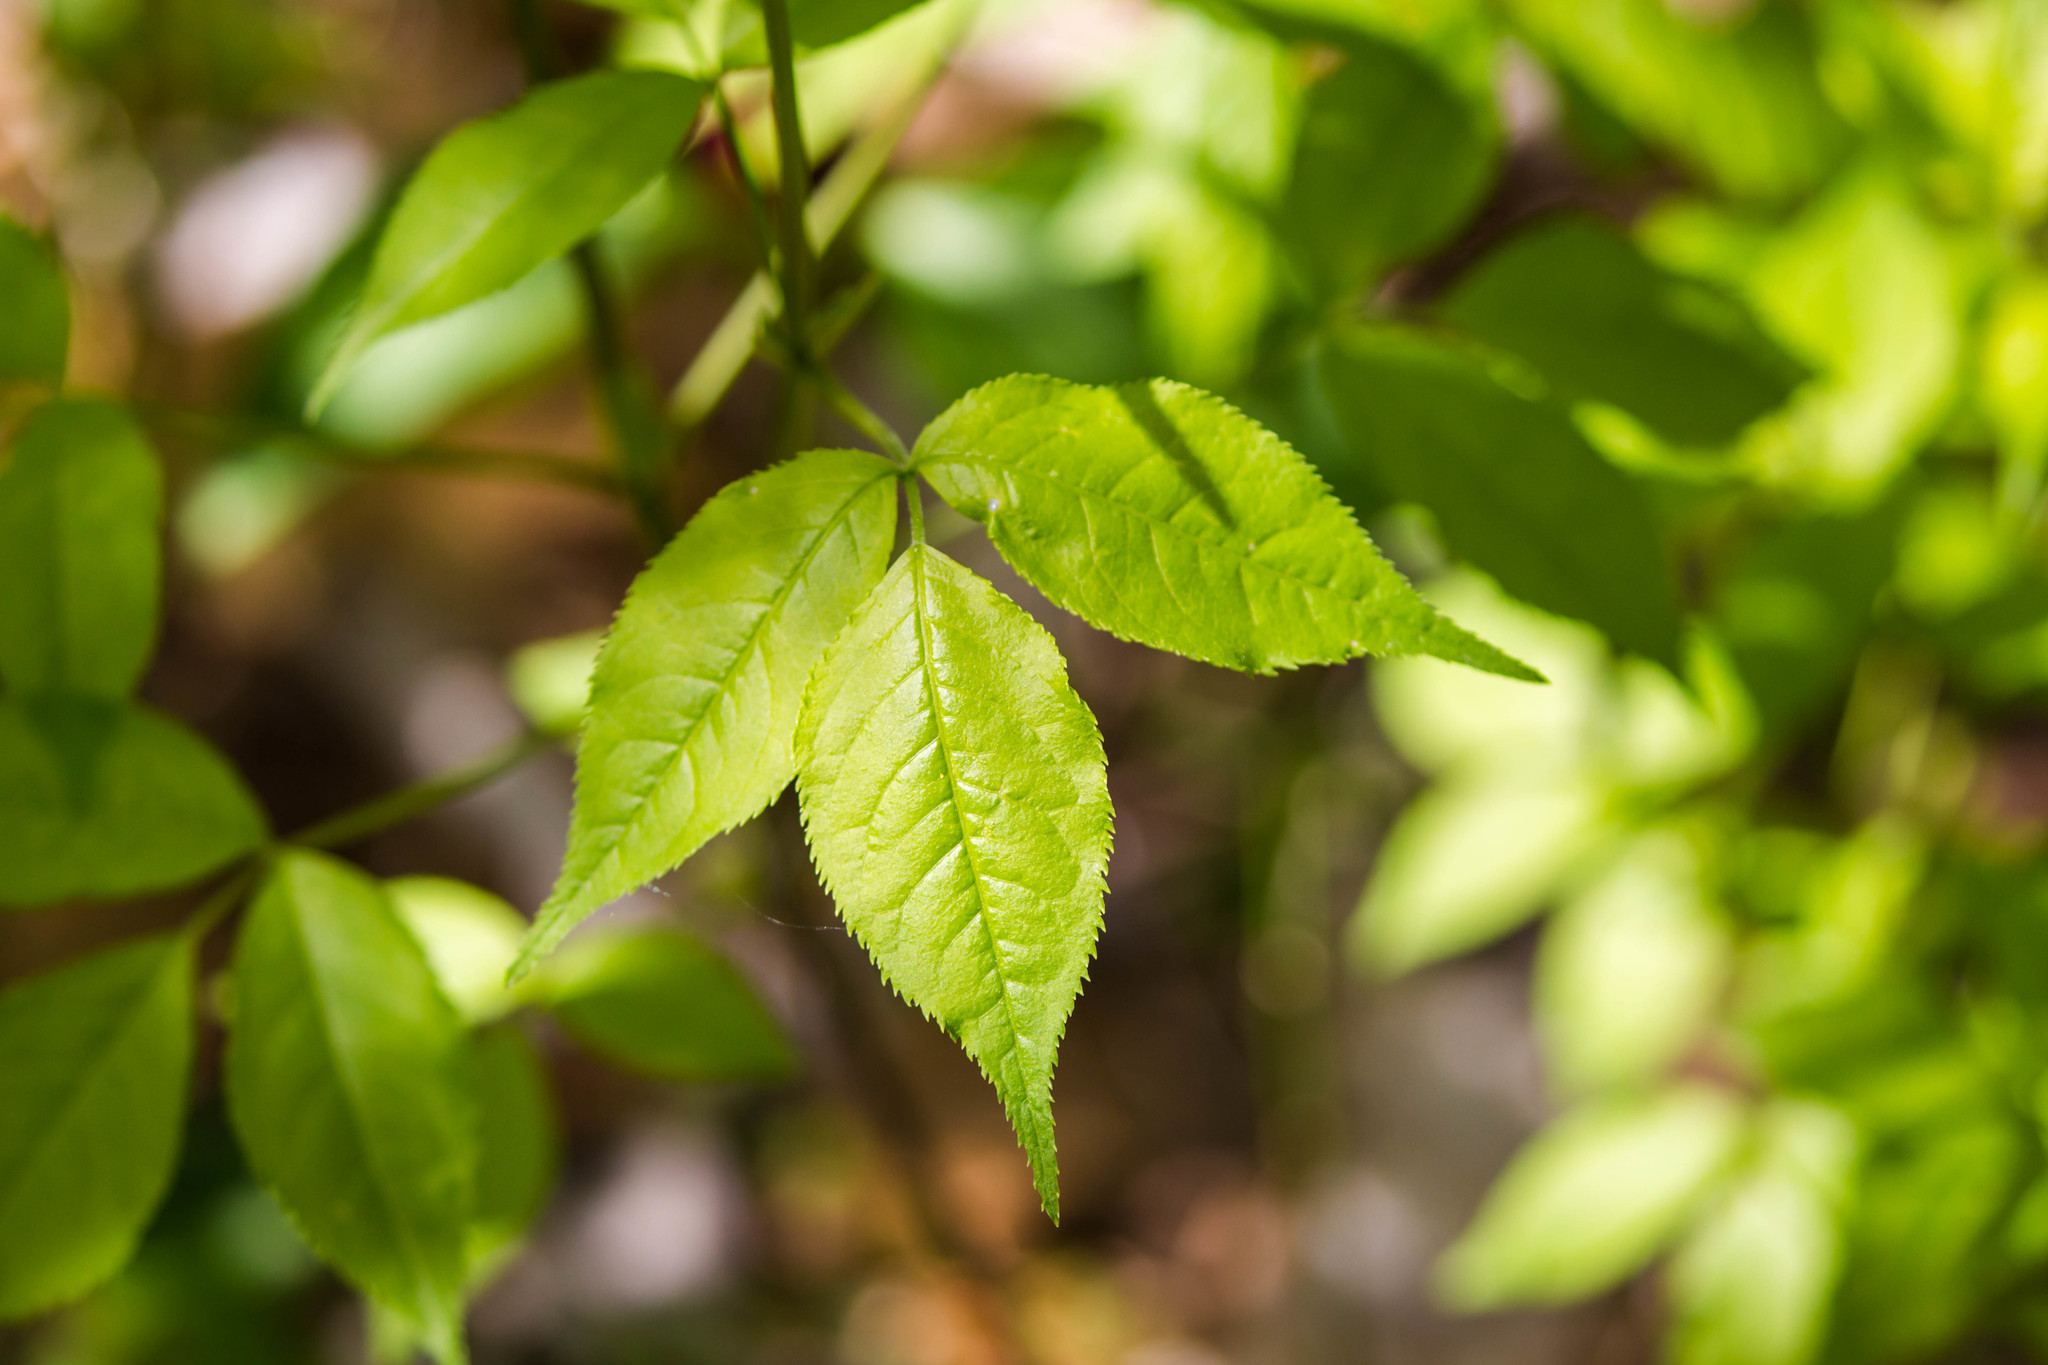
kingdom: Plantae
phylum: Tracheophyta
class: Magnoliopsida
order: Crossosomatales
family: Staphyleaceae
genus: Staphylea
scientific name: Staphylea trifolia
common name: American bladdernut
